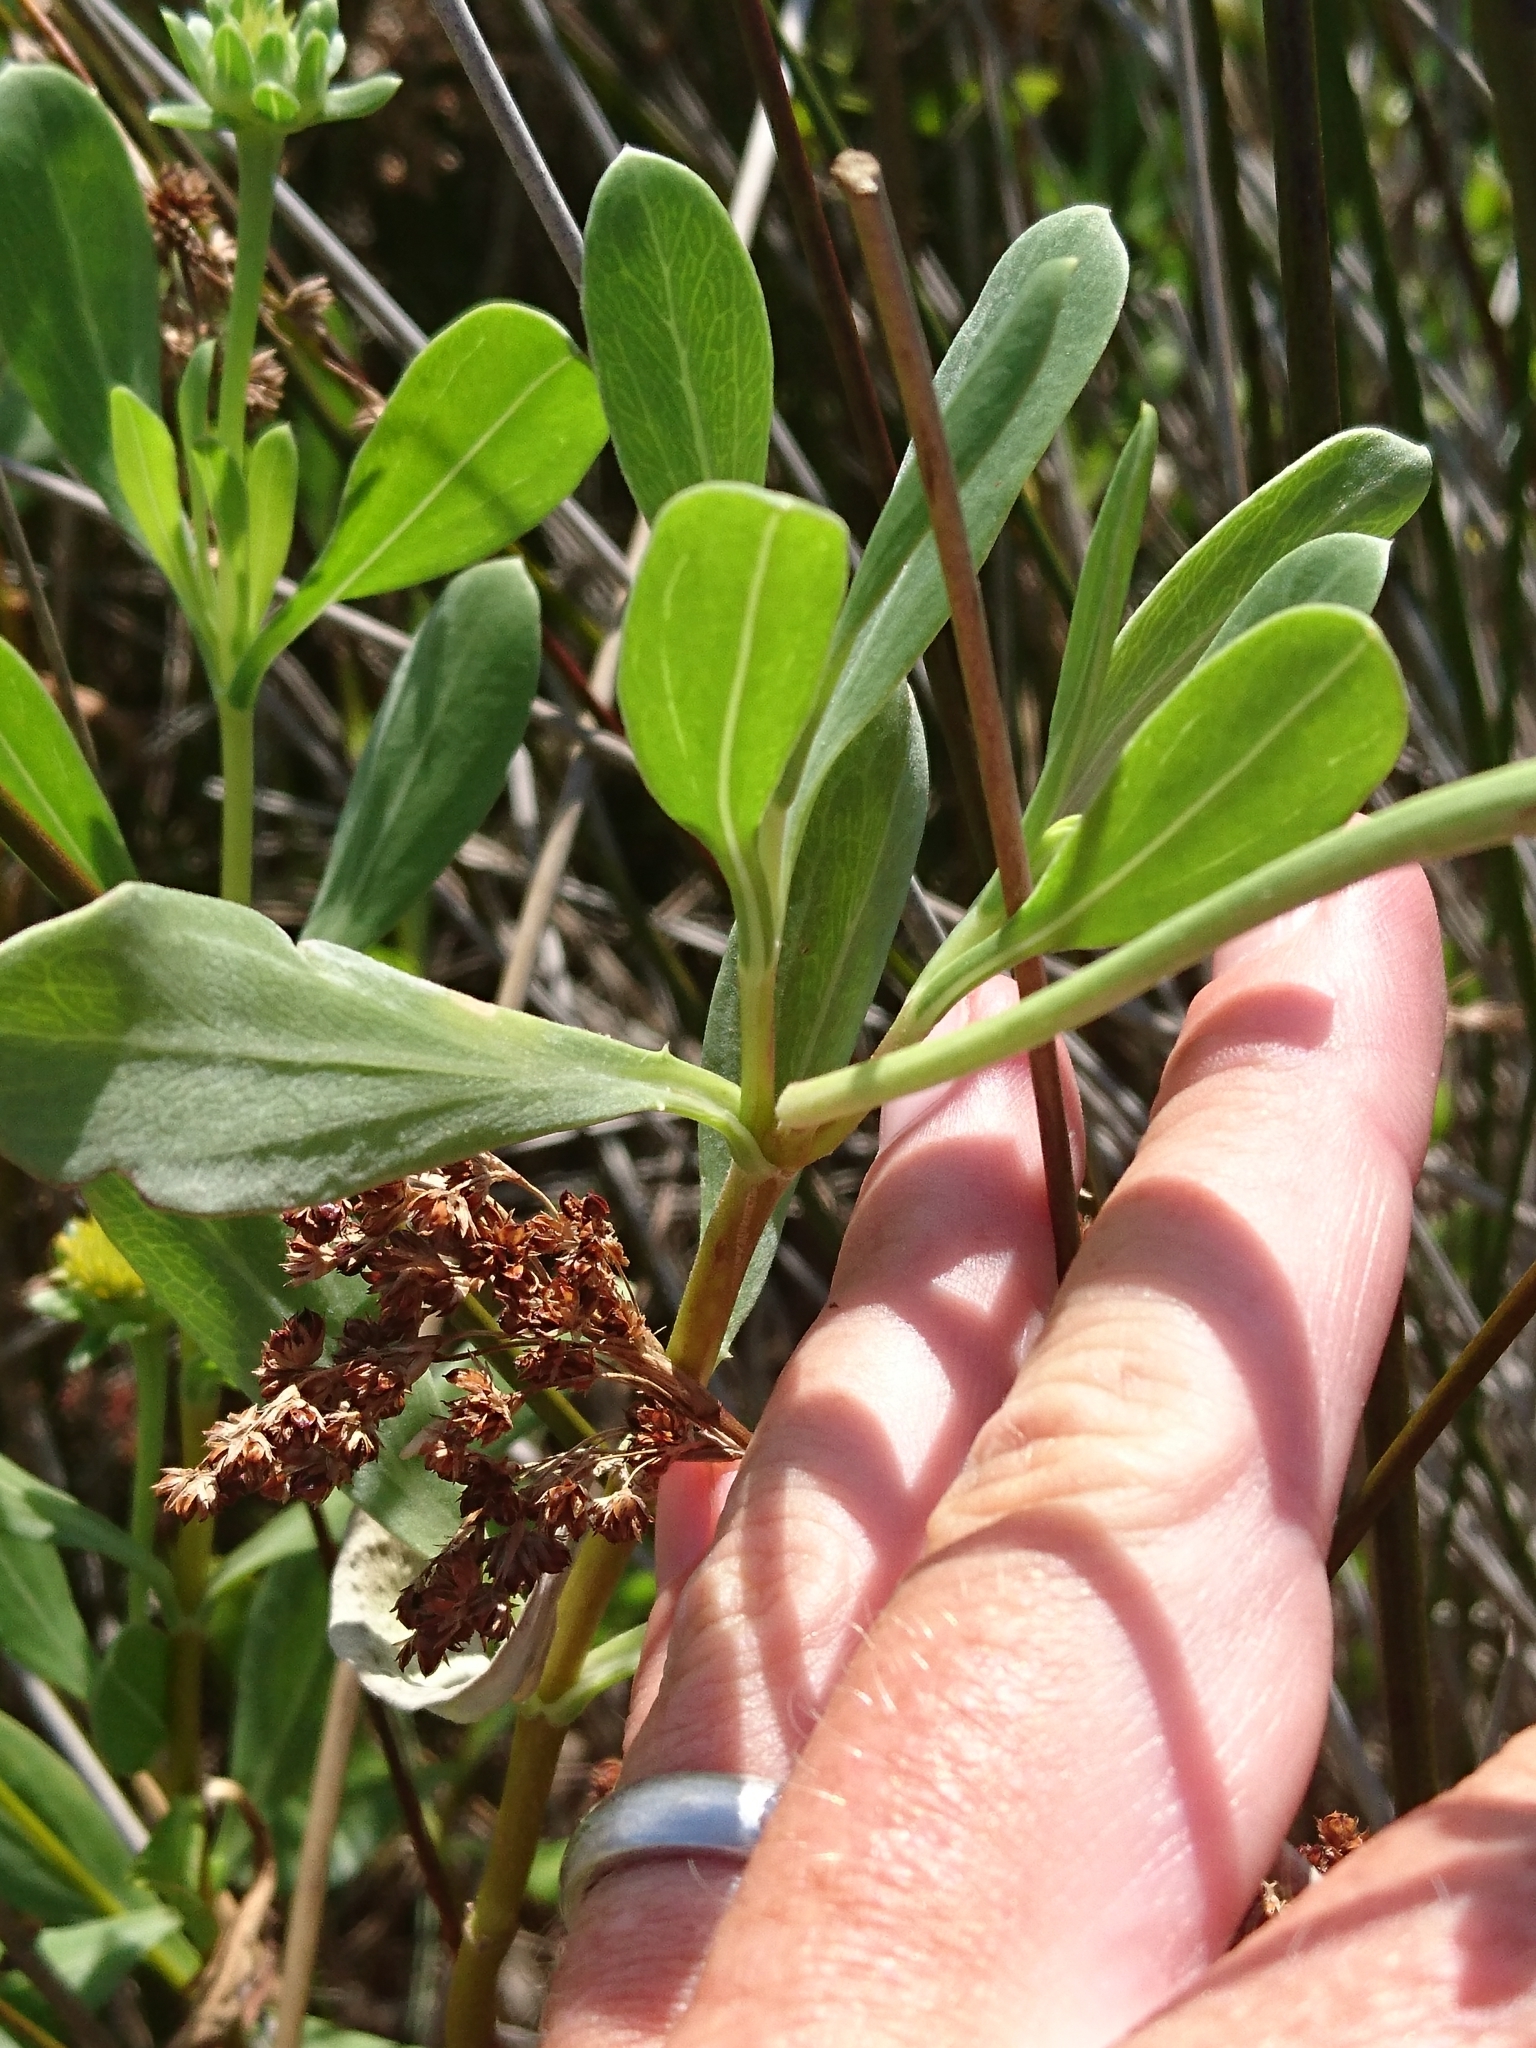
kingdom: Plantae
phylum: Tracheophyta
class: Magnoliopsida
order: Asterales
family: Asteraceae
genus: Borrichia
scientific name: Borrichia frutescens
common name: Sea oxeye
